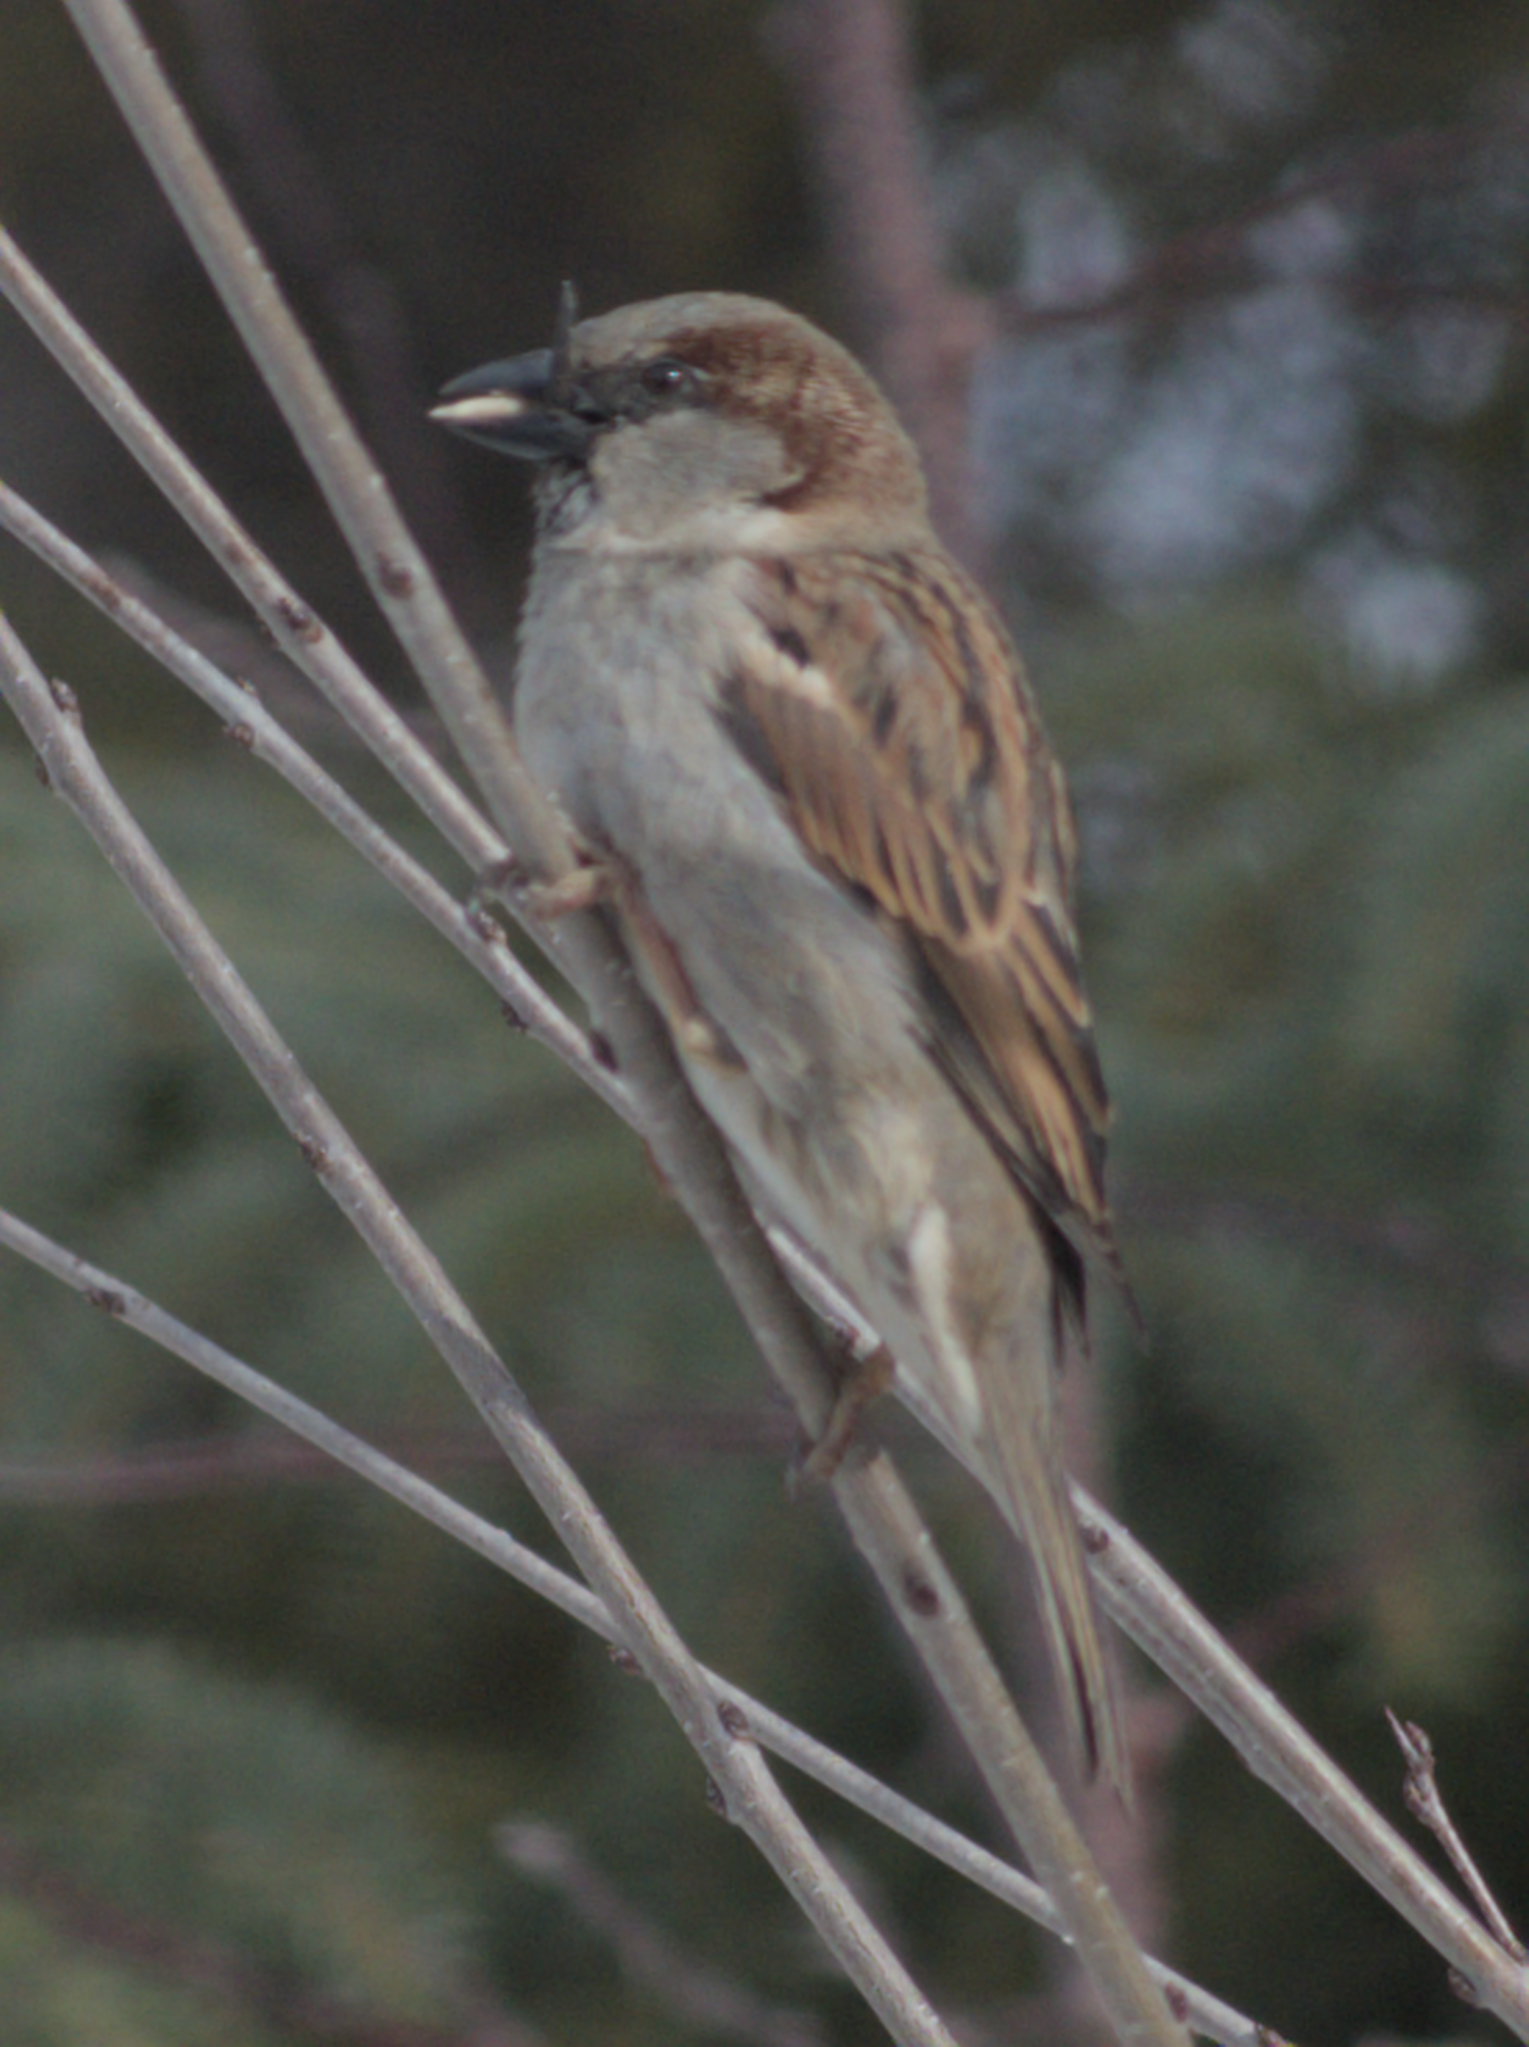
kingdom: Animalia
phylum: Chordata
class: Aves
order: Passeriformes
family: Passeridae
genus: Passer
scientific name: Passer domesticus
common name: House sparrow
